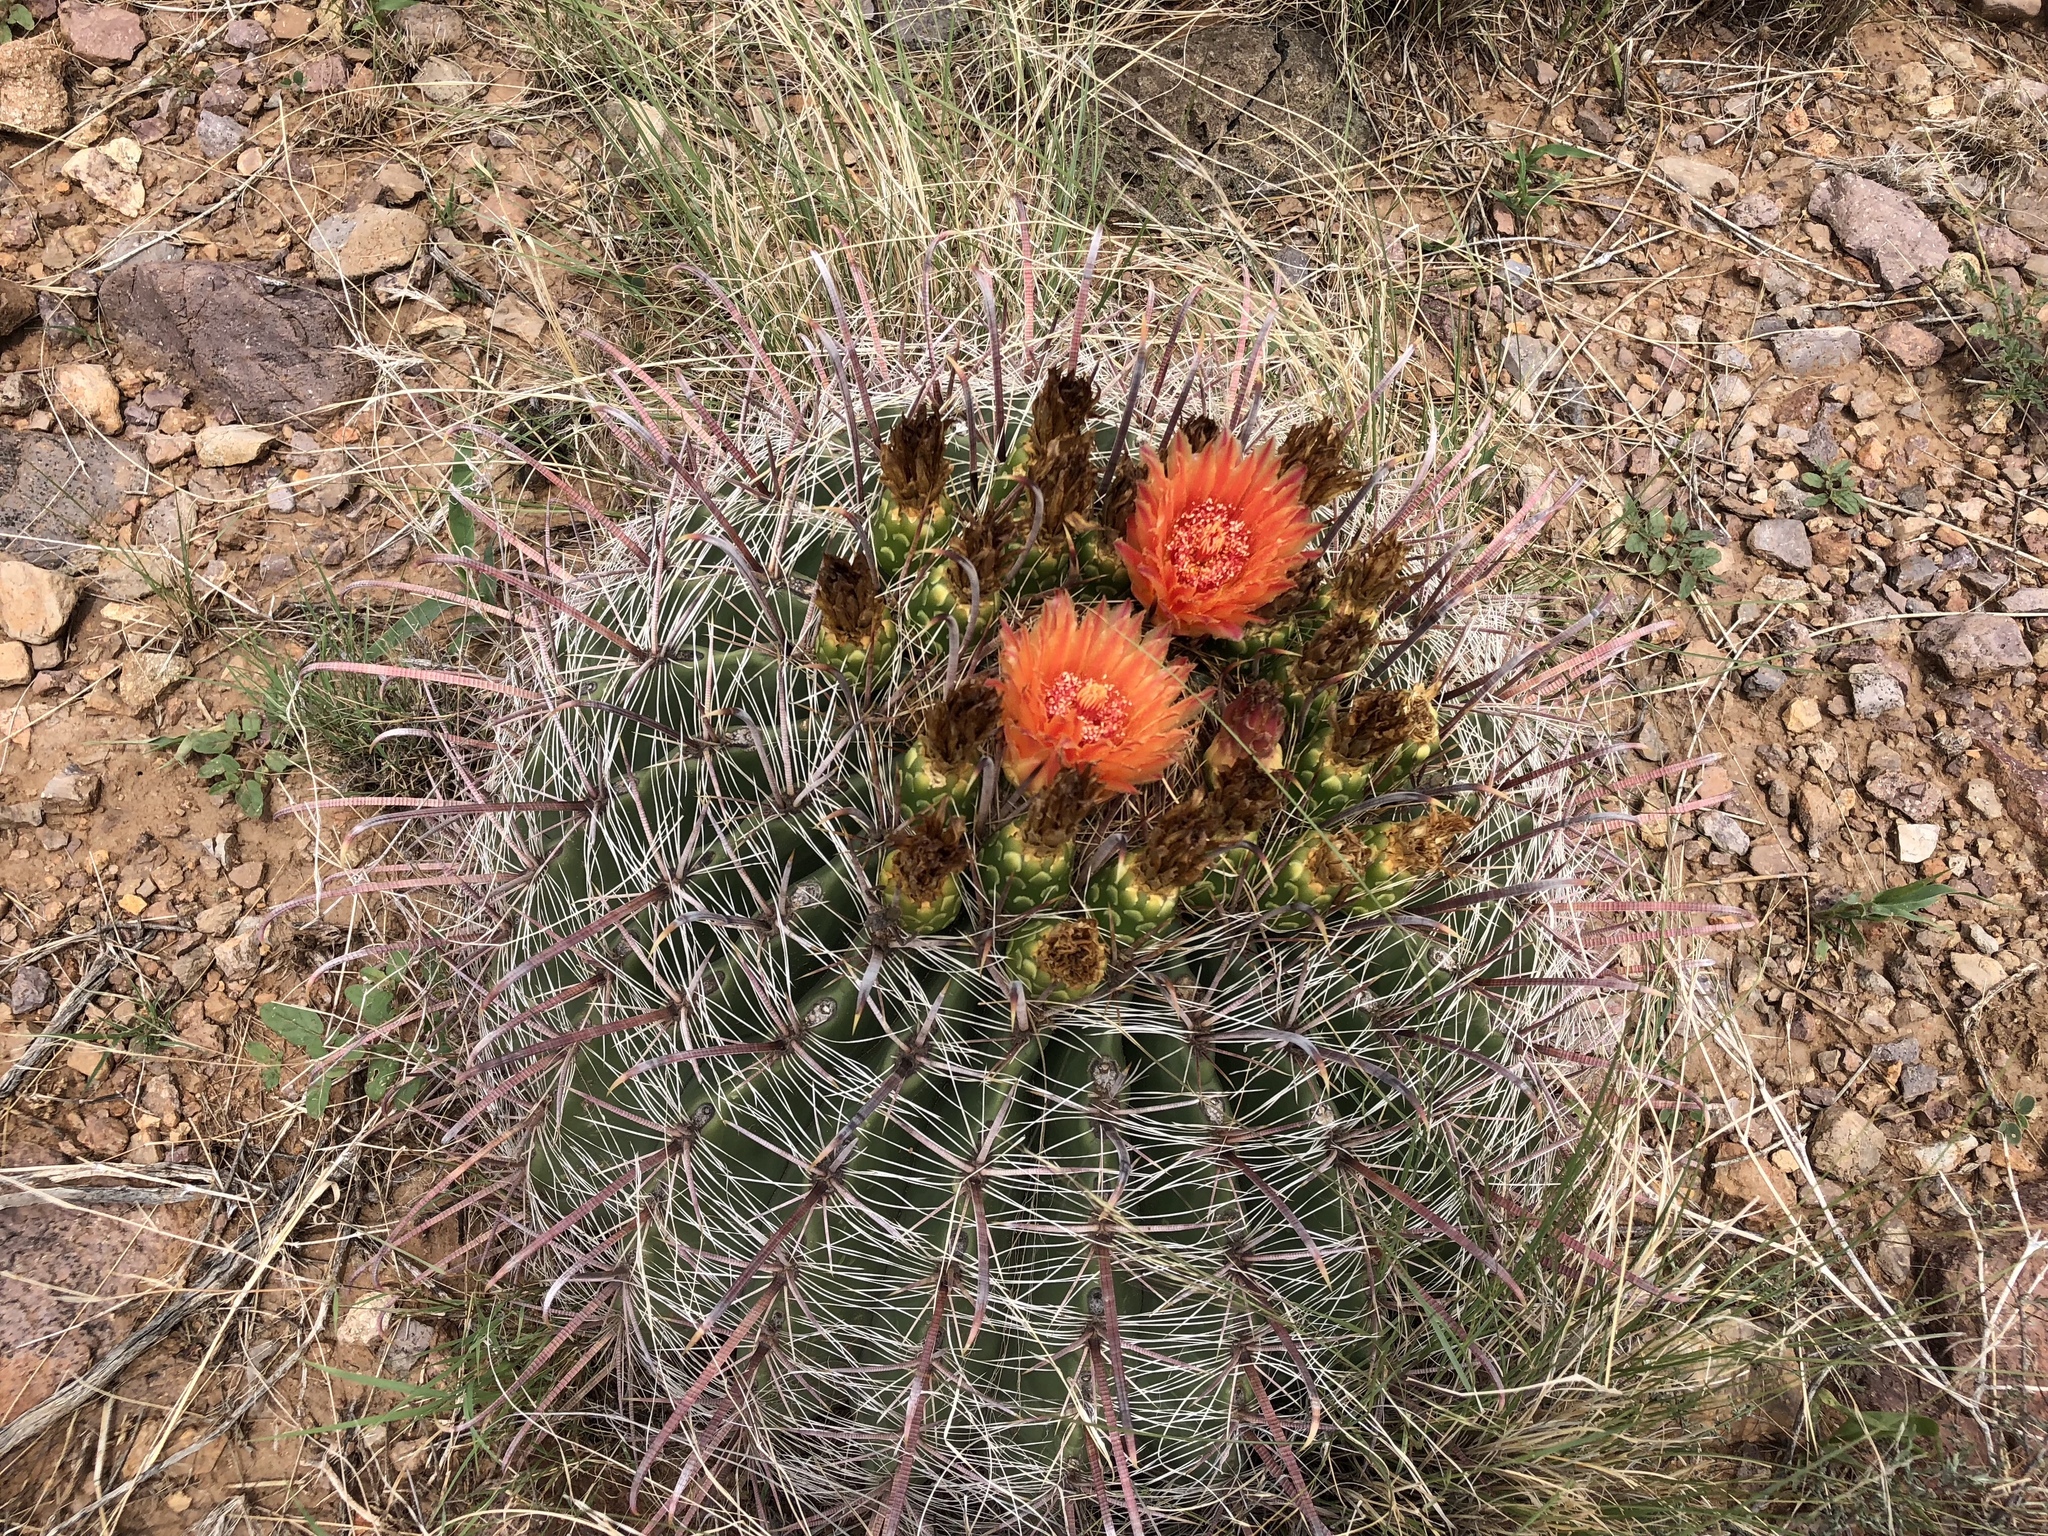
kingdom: Plantae
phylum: Tracheophyta
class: Magnoliopsida
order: Caryophyllales
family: Cactaceae
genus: Ferocactus
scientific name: Ferocactus wislizeni
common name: Candy barrel cactus
